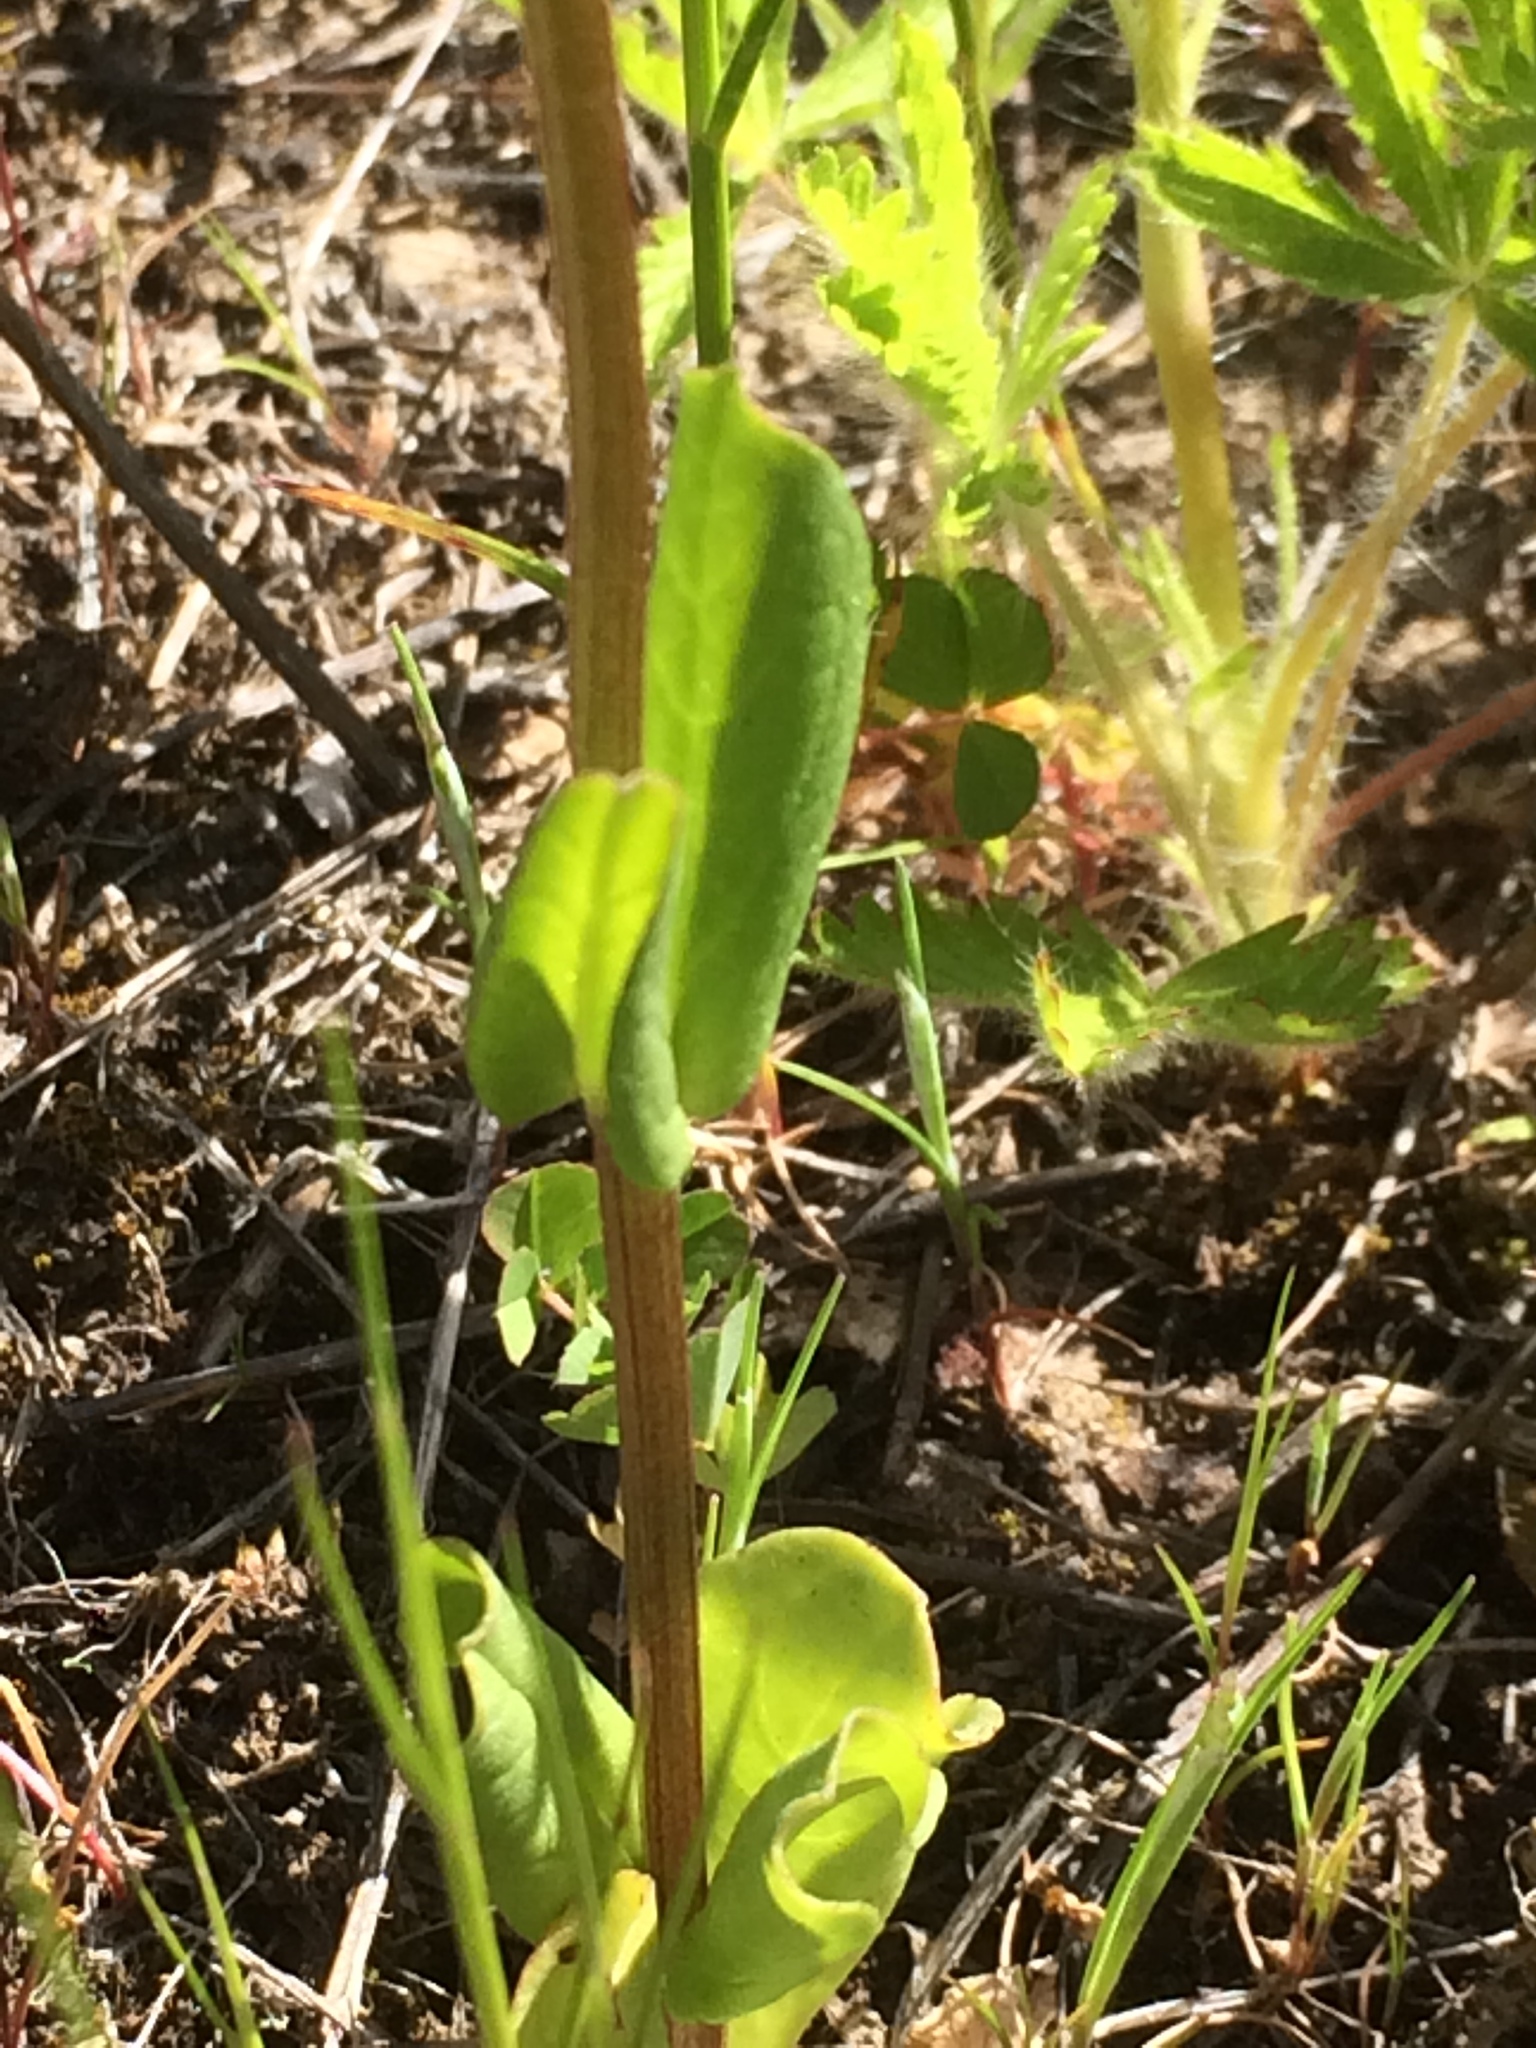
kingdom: Plantae
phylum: Tracheophyta
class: Magnoliopsida
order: Dipsacales
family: Caprifoliaceae
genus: Plectritis
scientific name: Plectritis congesta
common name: Pink plectritis
